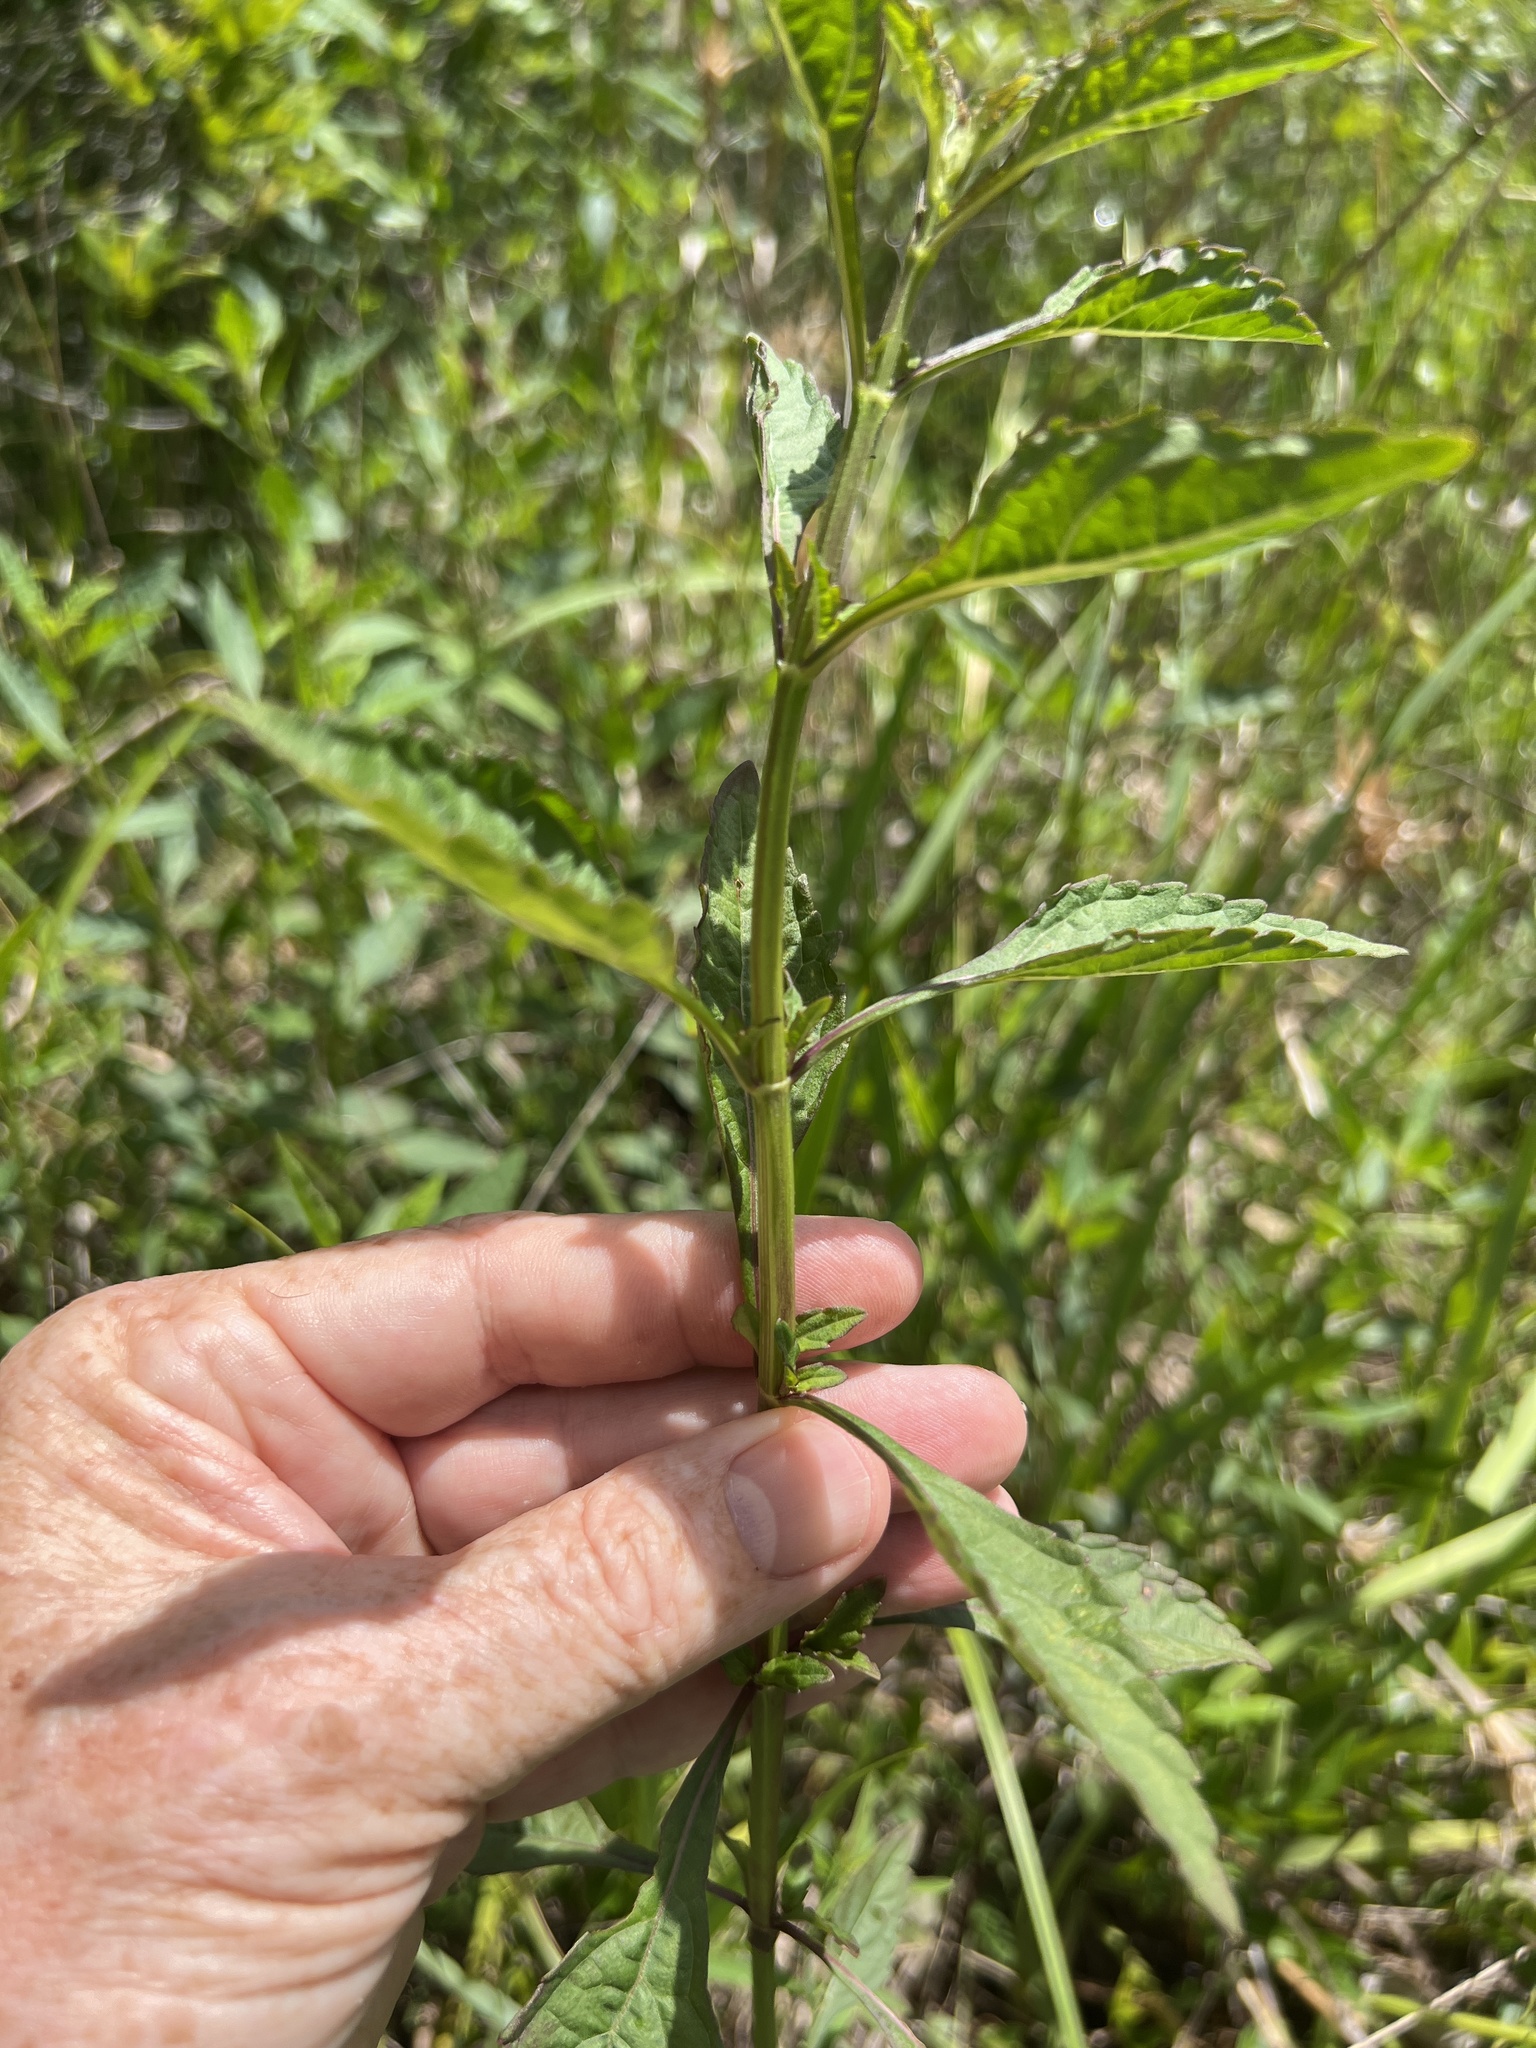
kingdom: Plantae
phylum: Tracheophyta
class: Magnoliopsida
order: Lamiales
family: Lamiaceae
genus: Hyptis
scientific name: Hyptis alata
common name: Cluster bush-mint
